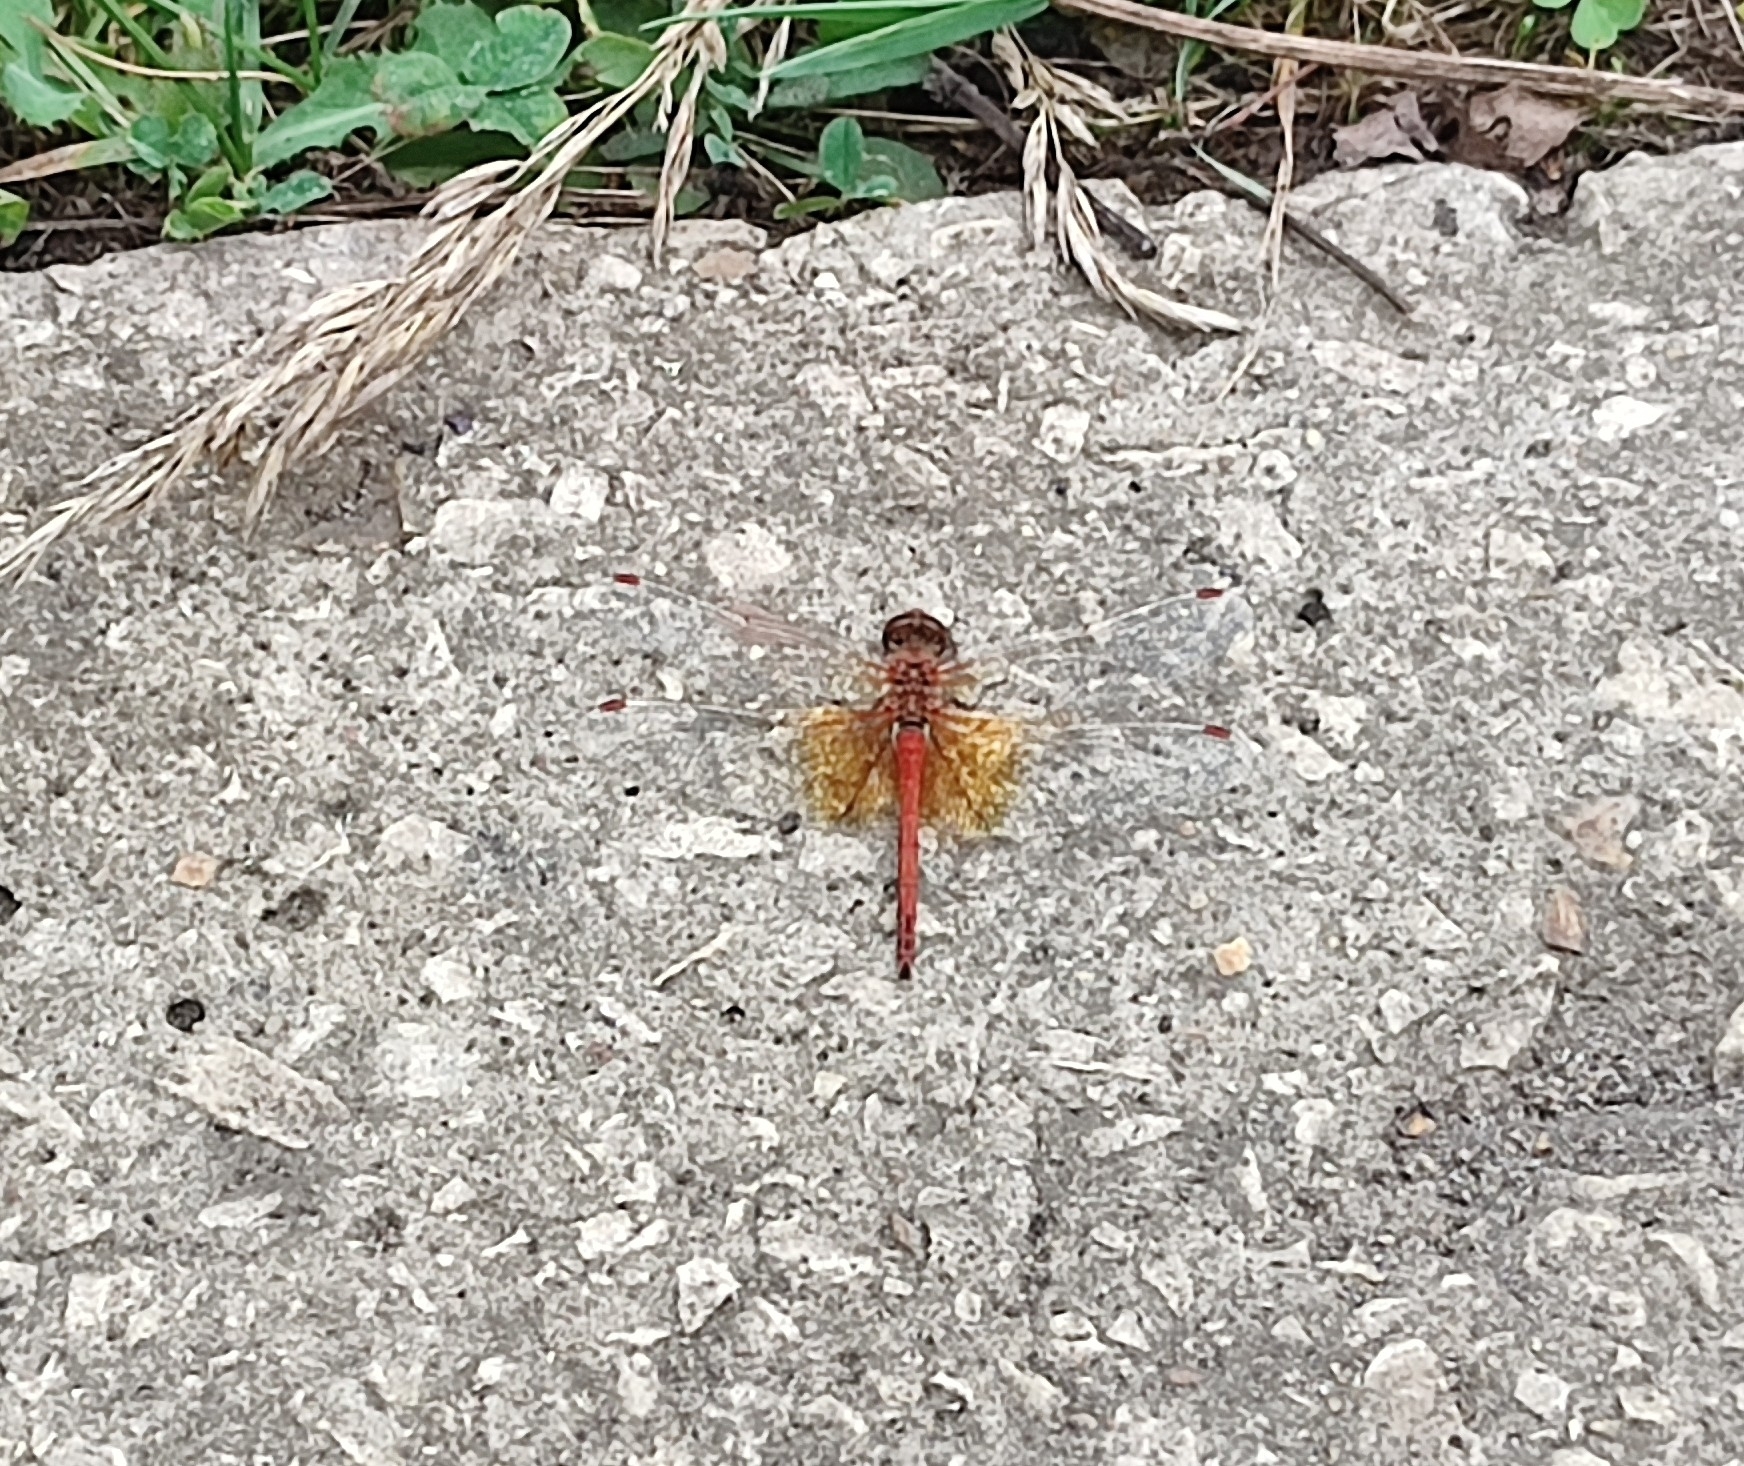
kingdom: Animalia
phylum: Arthropoda
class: Insecta
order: Odonata
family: Libellulidae
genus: Sympetrum
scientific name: Sympetrum flaveolum
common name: Yellow-winged darter
